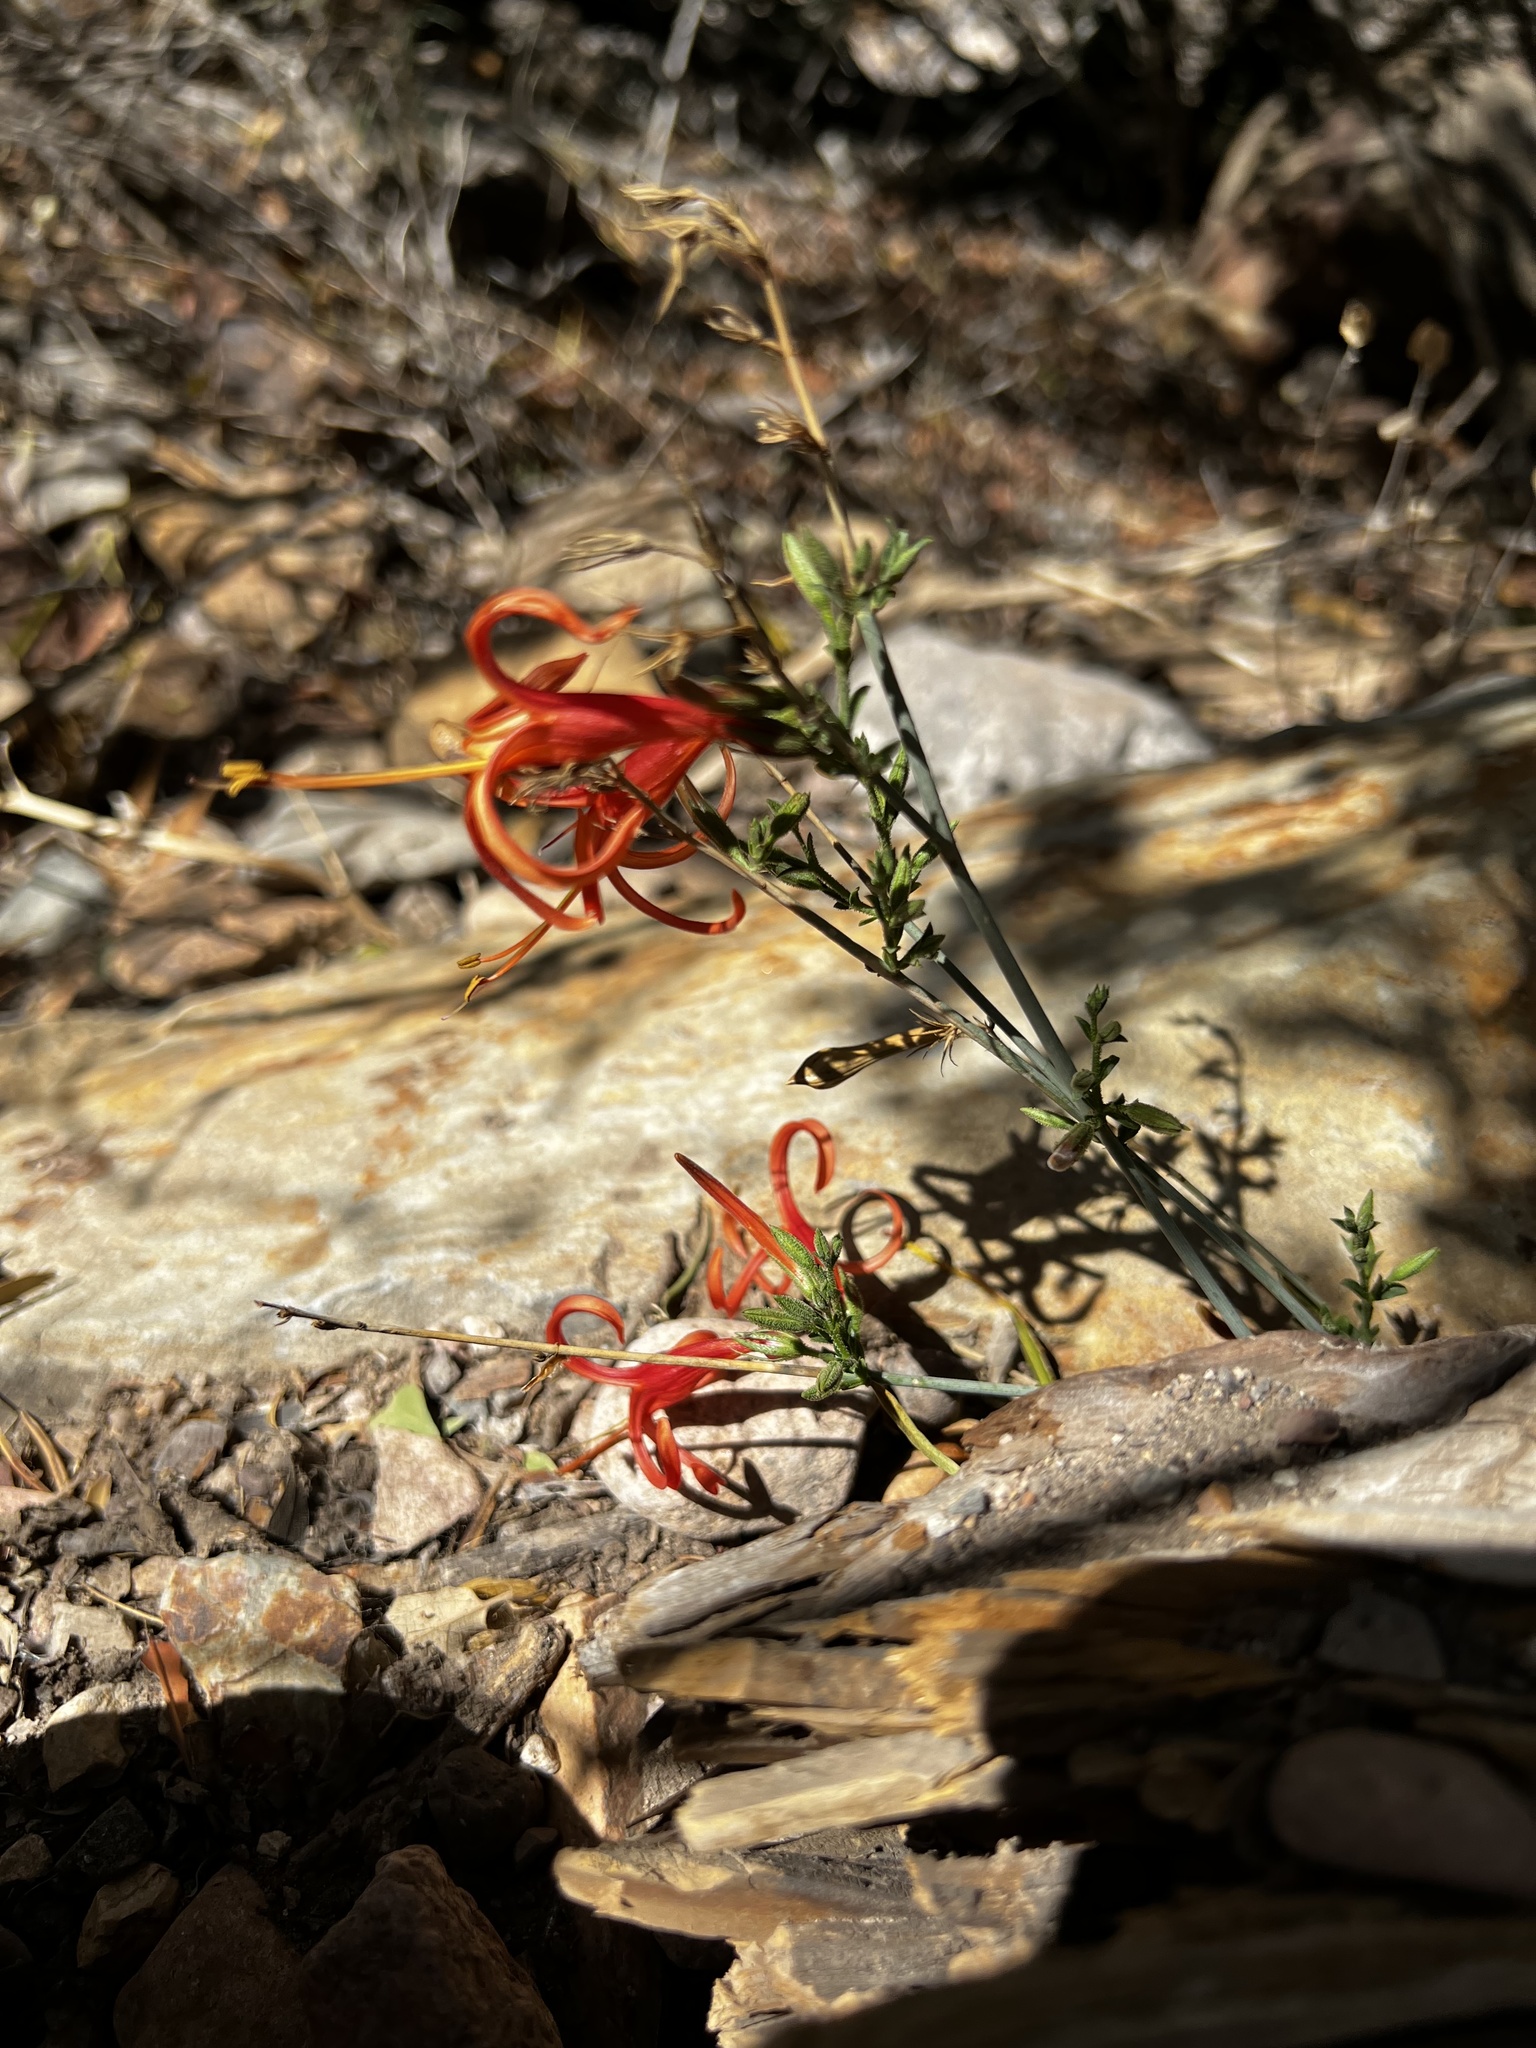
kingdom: Plantae
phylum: Tracheophyta
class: Magnoliopsida
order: Lamiales
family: Acanthaceae
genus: Anisacanthus
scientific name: Anisacanthus linearis
